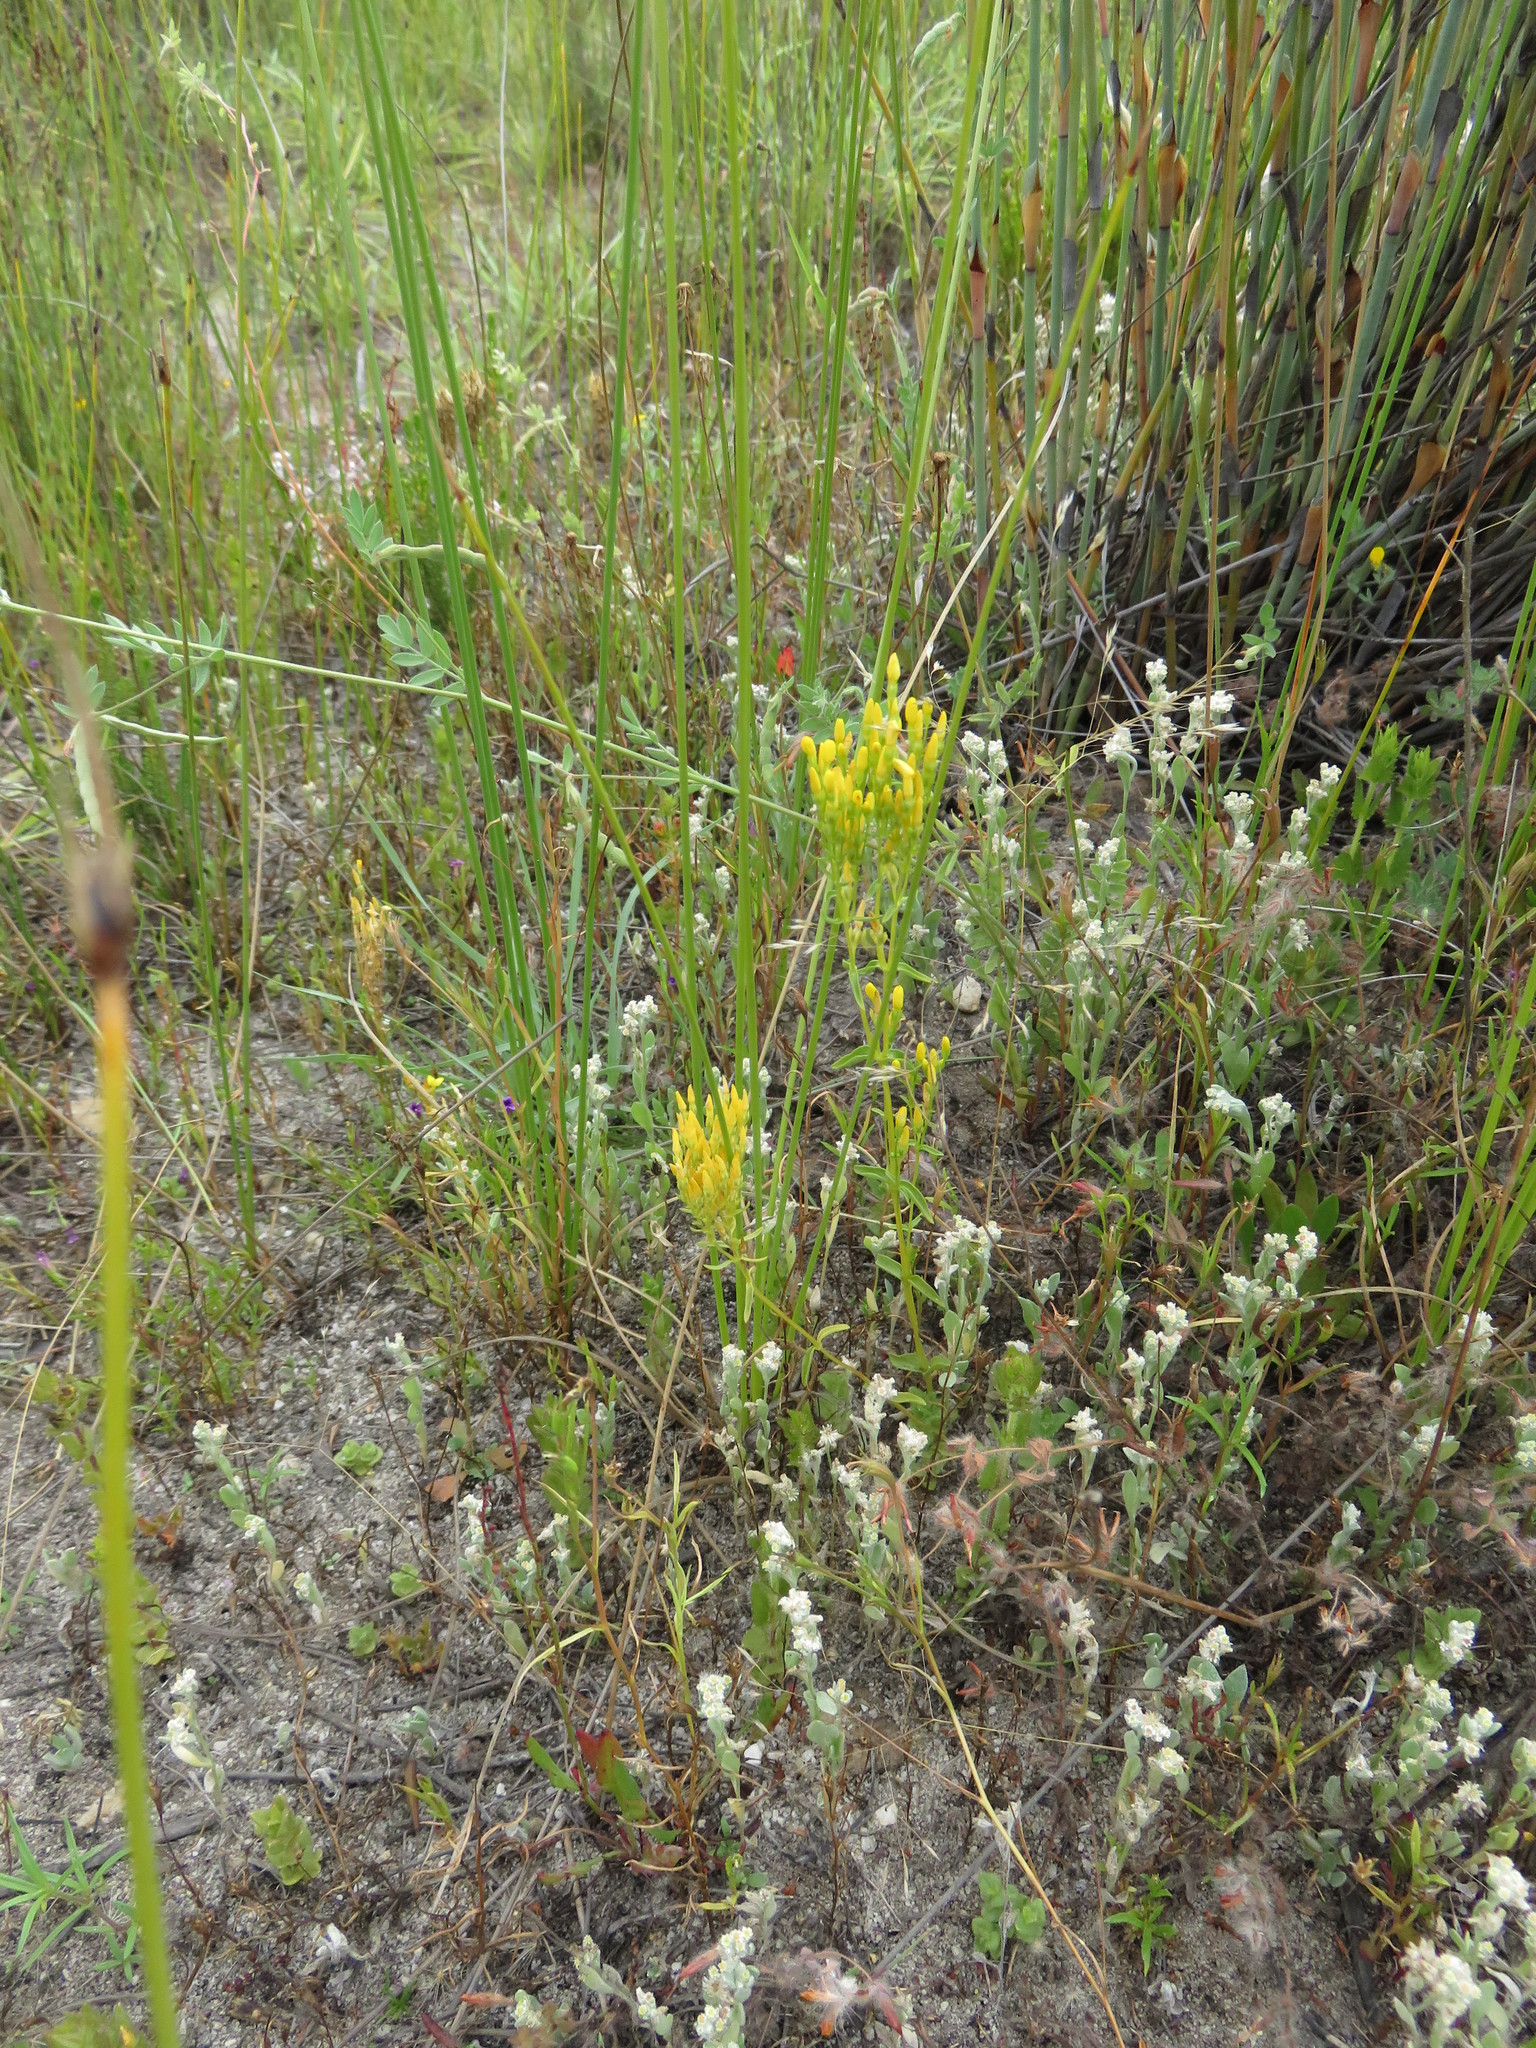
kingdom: Plantae
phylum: Tracheophyta
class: Magnoliopsida
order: Gentianales
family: Gentianaceae
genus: Sebaea
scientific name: Sebaea aurea
